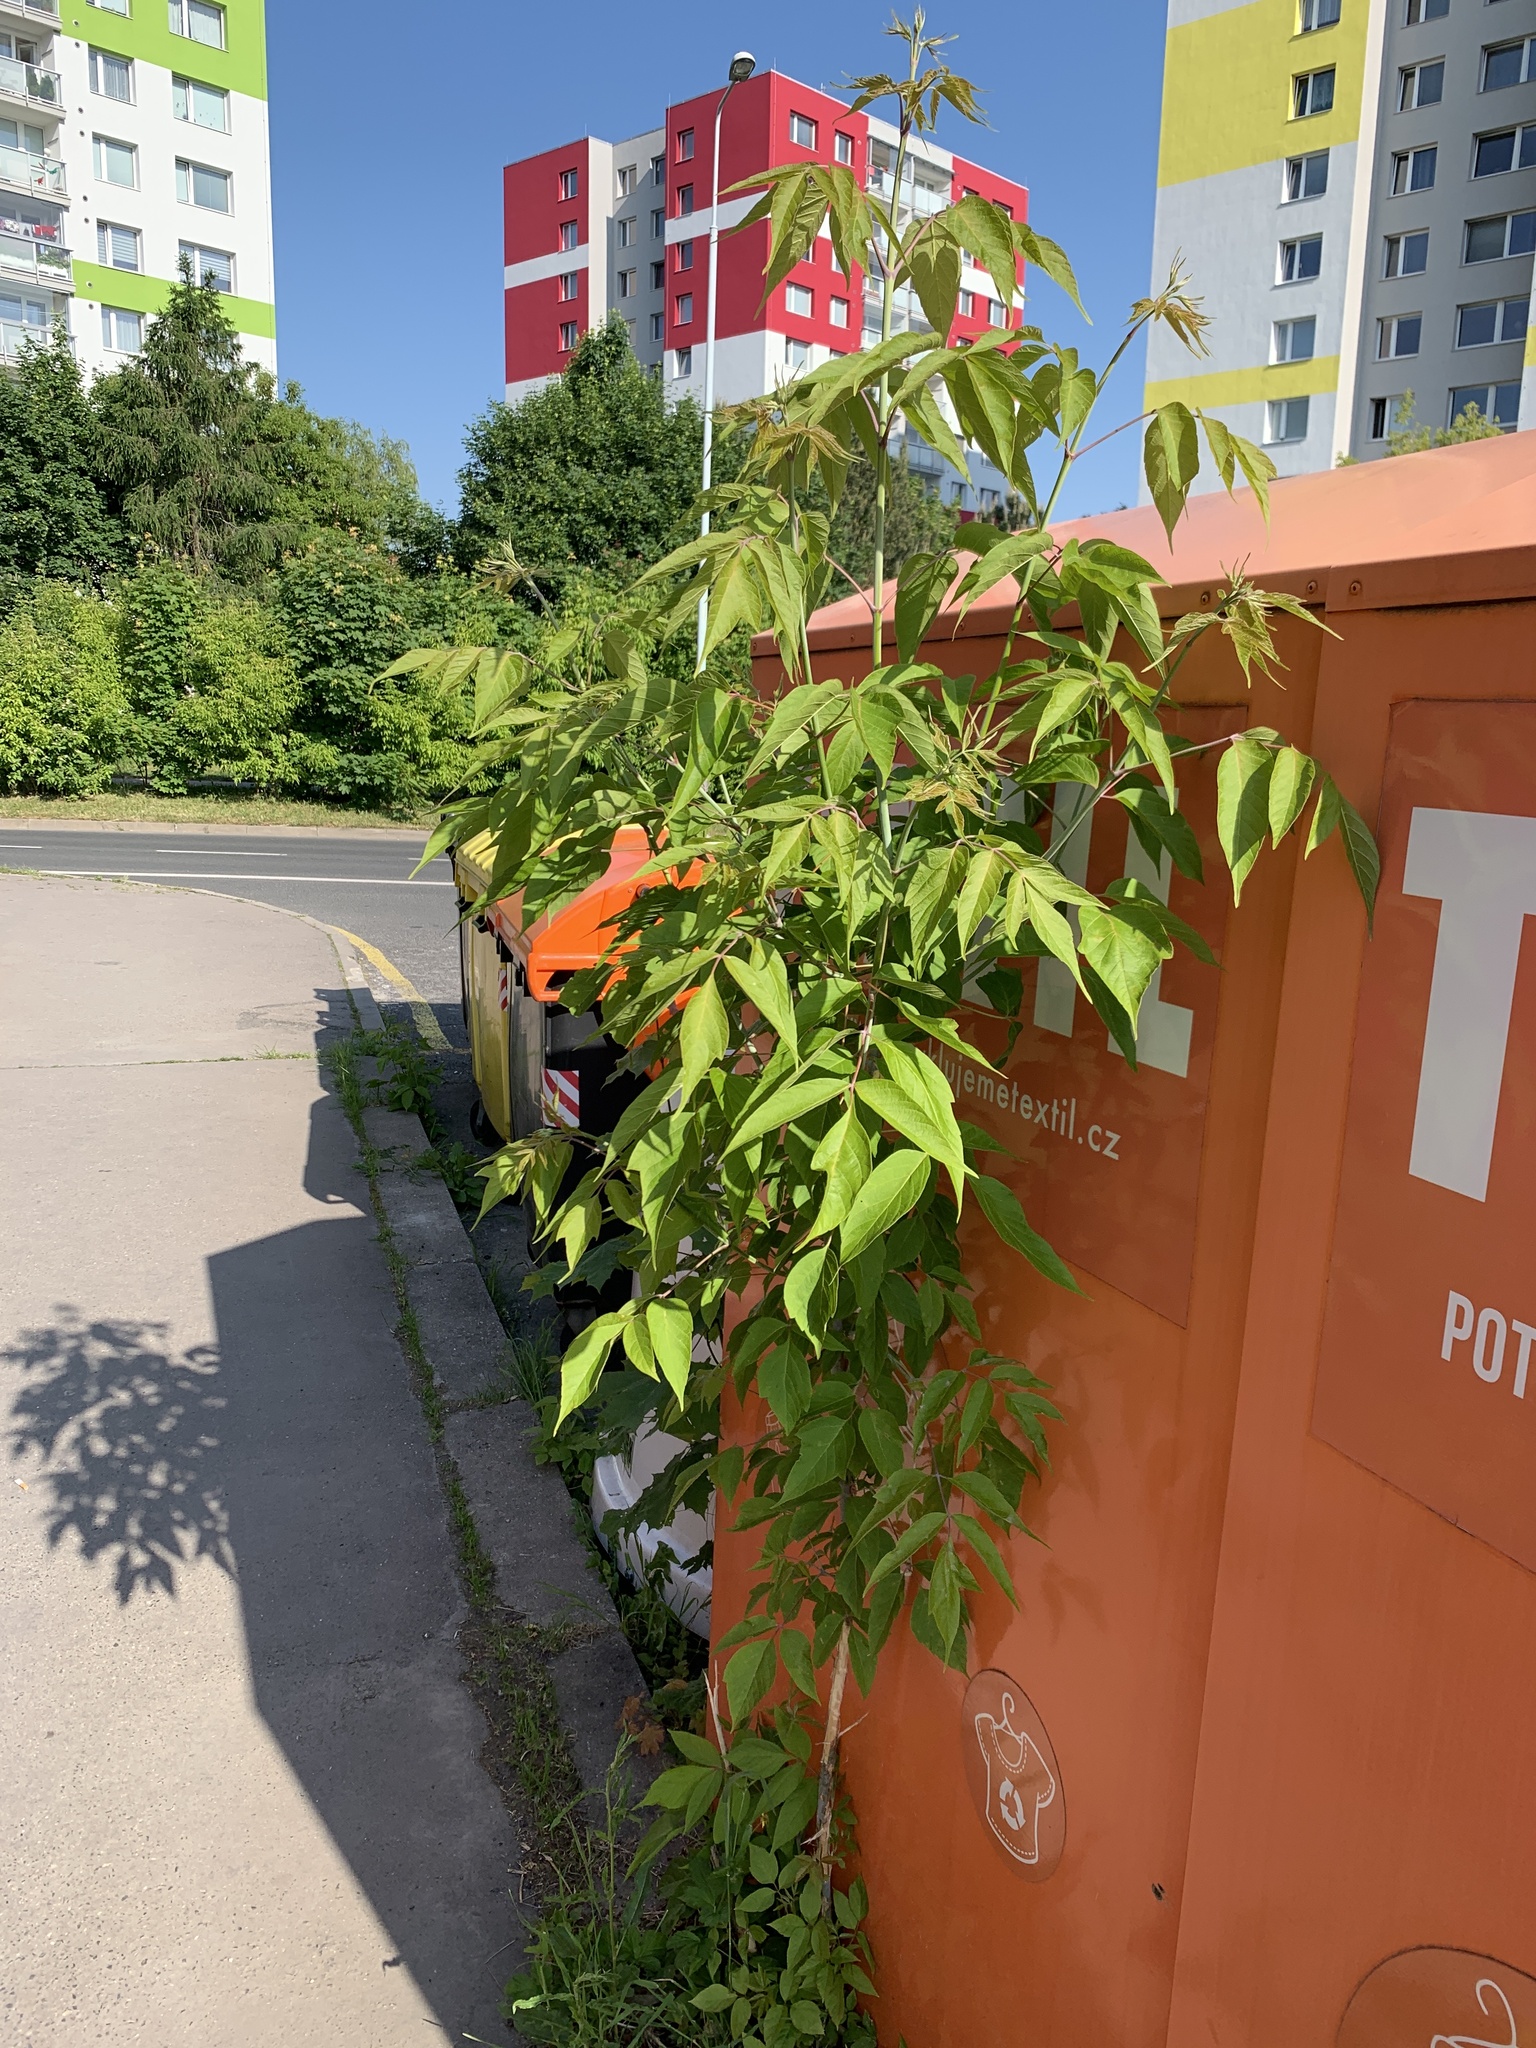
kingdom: Plantae
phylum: Tracheophyta
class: Magnoliopsida
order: Sapindales
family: Simaroubaceae
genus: Ailanthus
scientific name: Ailanthus altissima
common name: Tree-of-heaven
